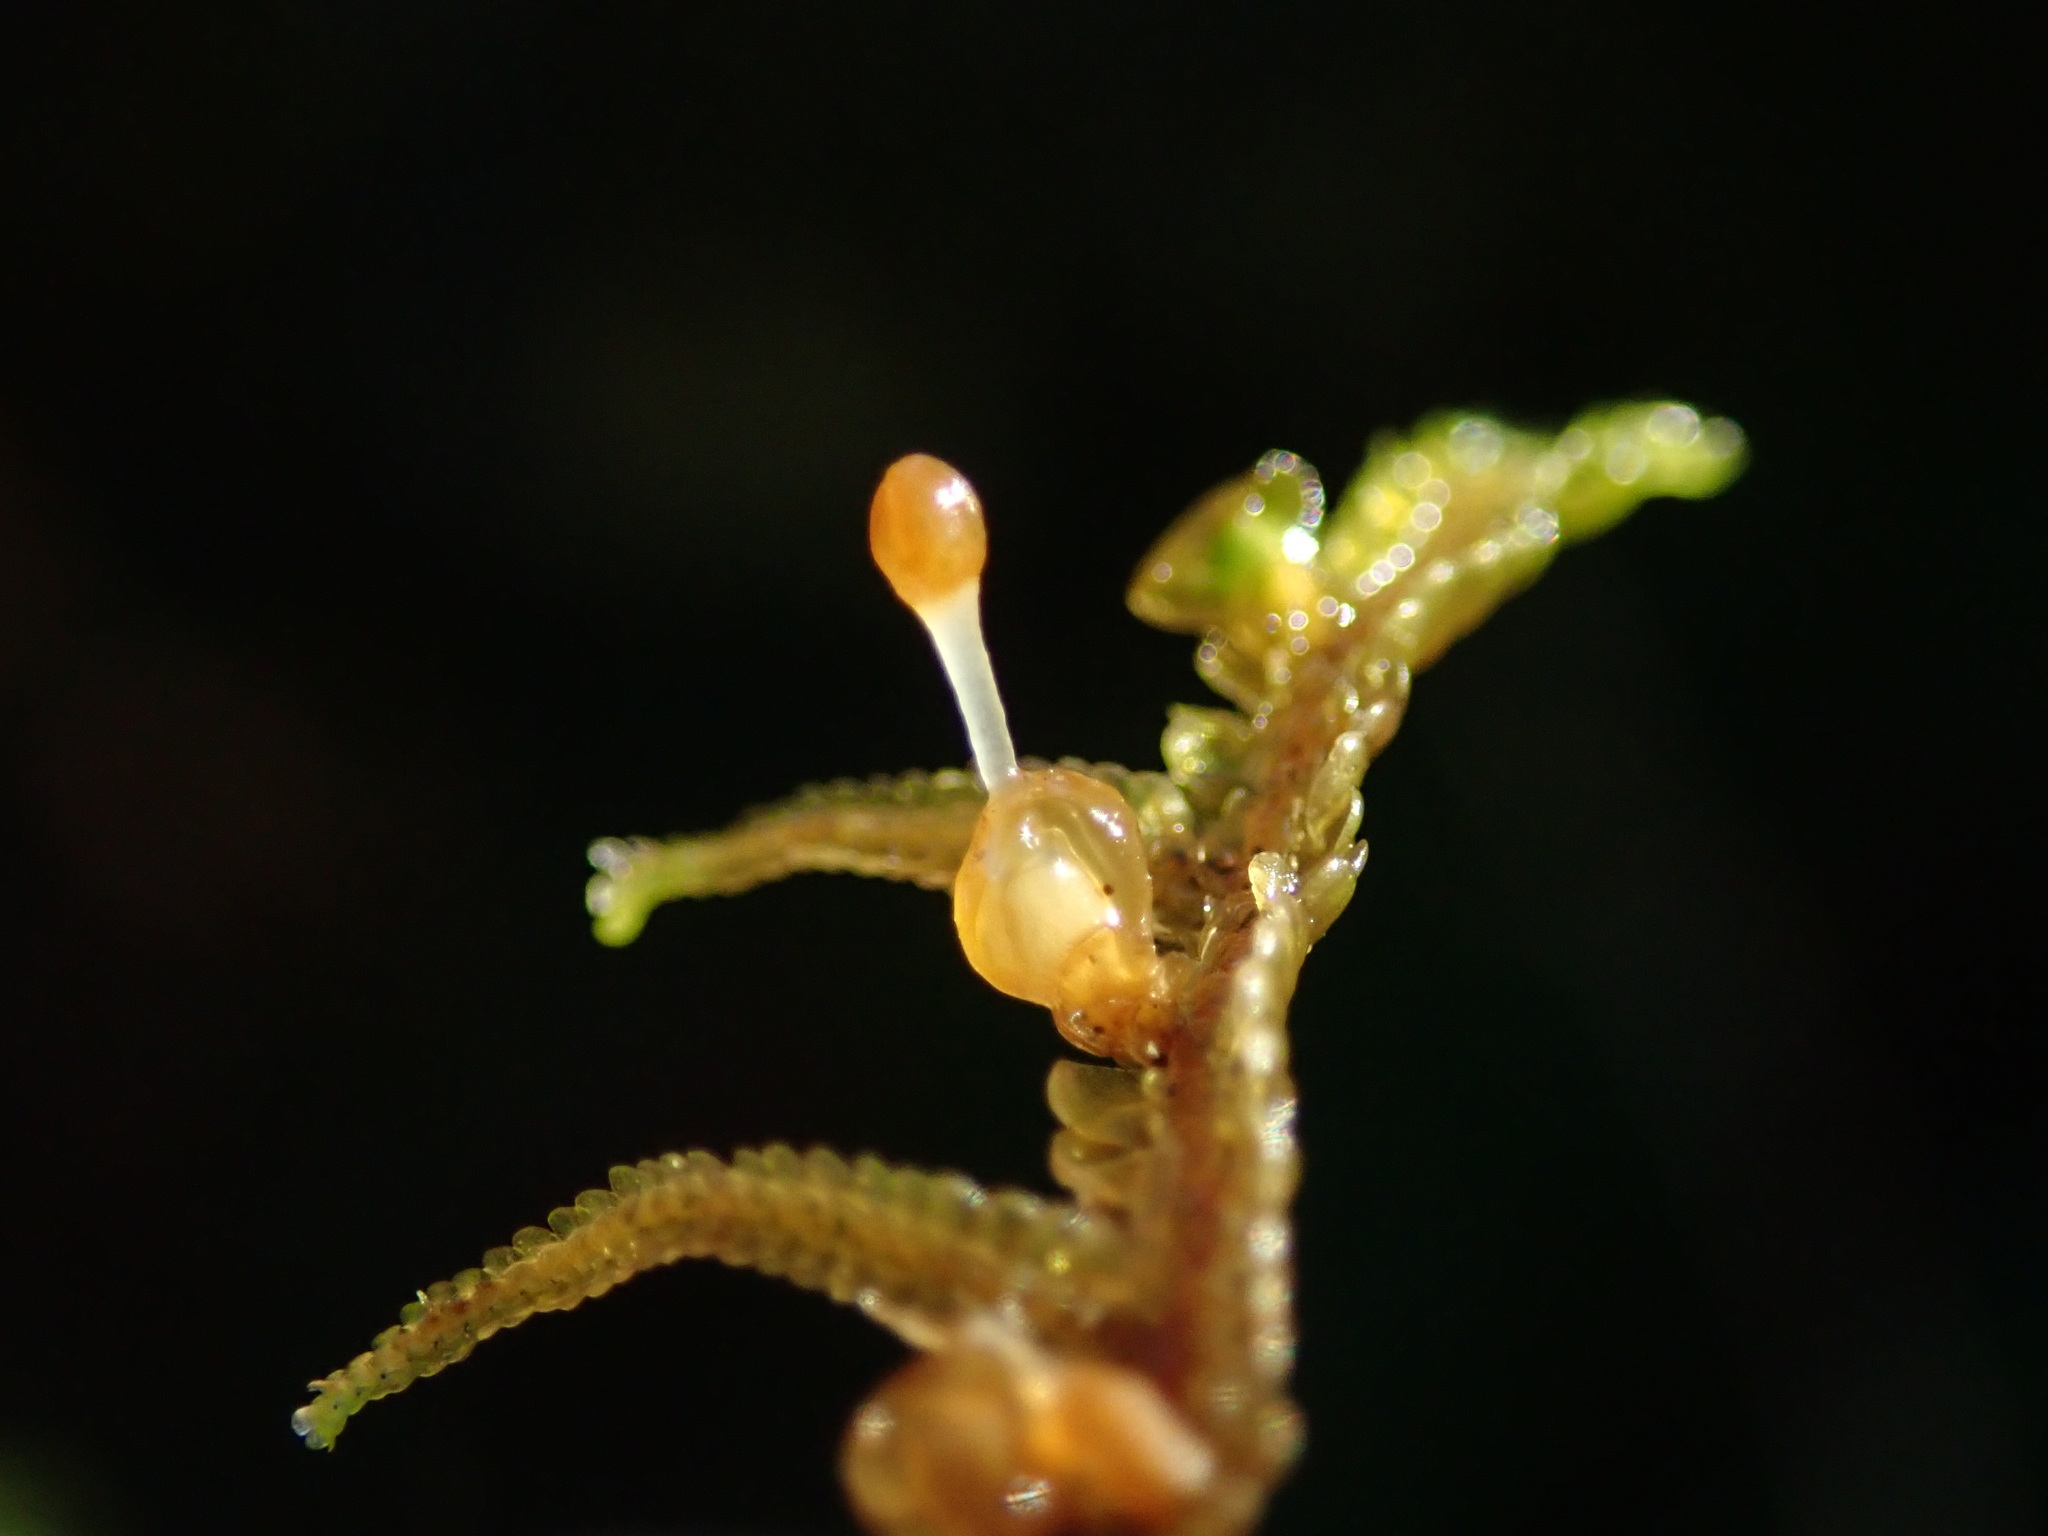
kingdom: Plantae
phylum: Marchantiophyta
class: Jungermanniopsida
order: Porellales
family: Porellaceae
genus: Porella
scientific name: Porella navicularis
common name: Tree ruffle liverwort
